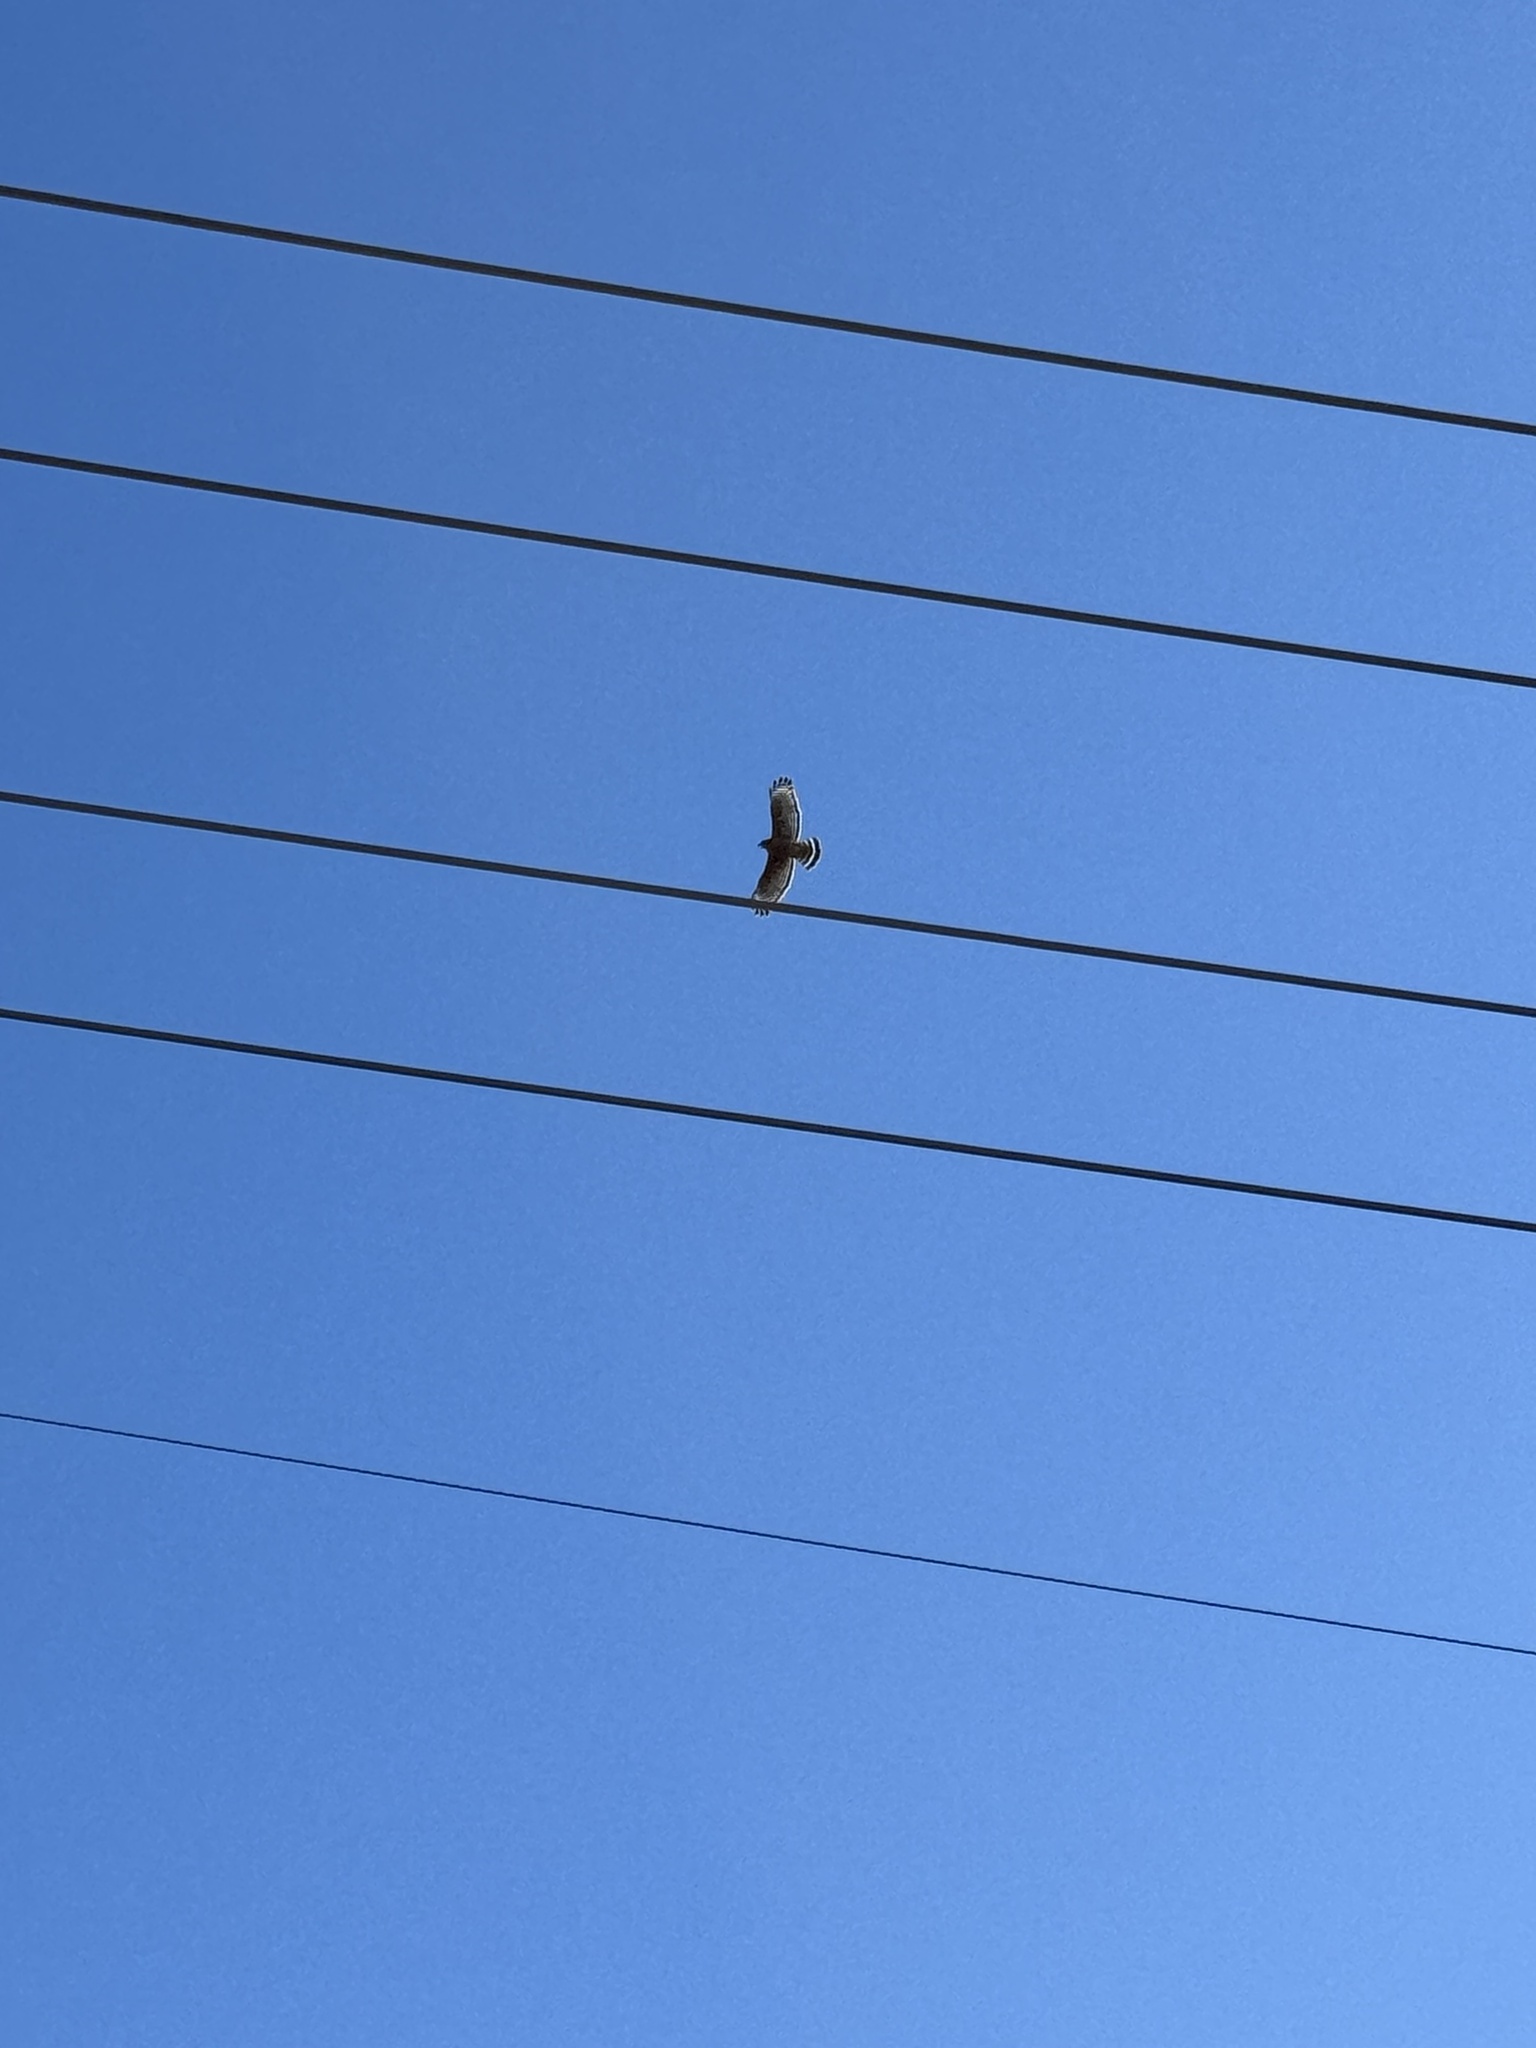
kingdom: Animalia
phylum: Chordata
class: Aves
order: Accipitriformes
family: Accipitridae
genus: Buteo
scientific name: Buteo lineatus
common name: Red-shouldered hawk
